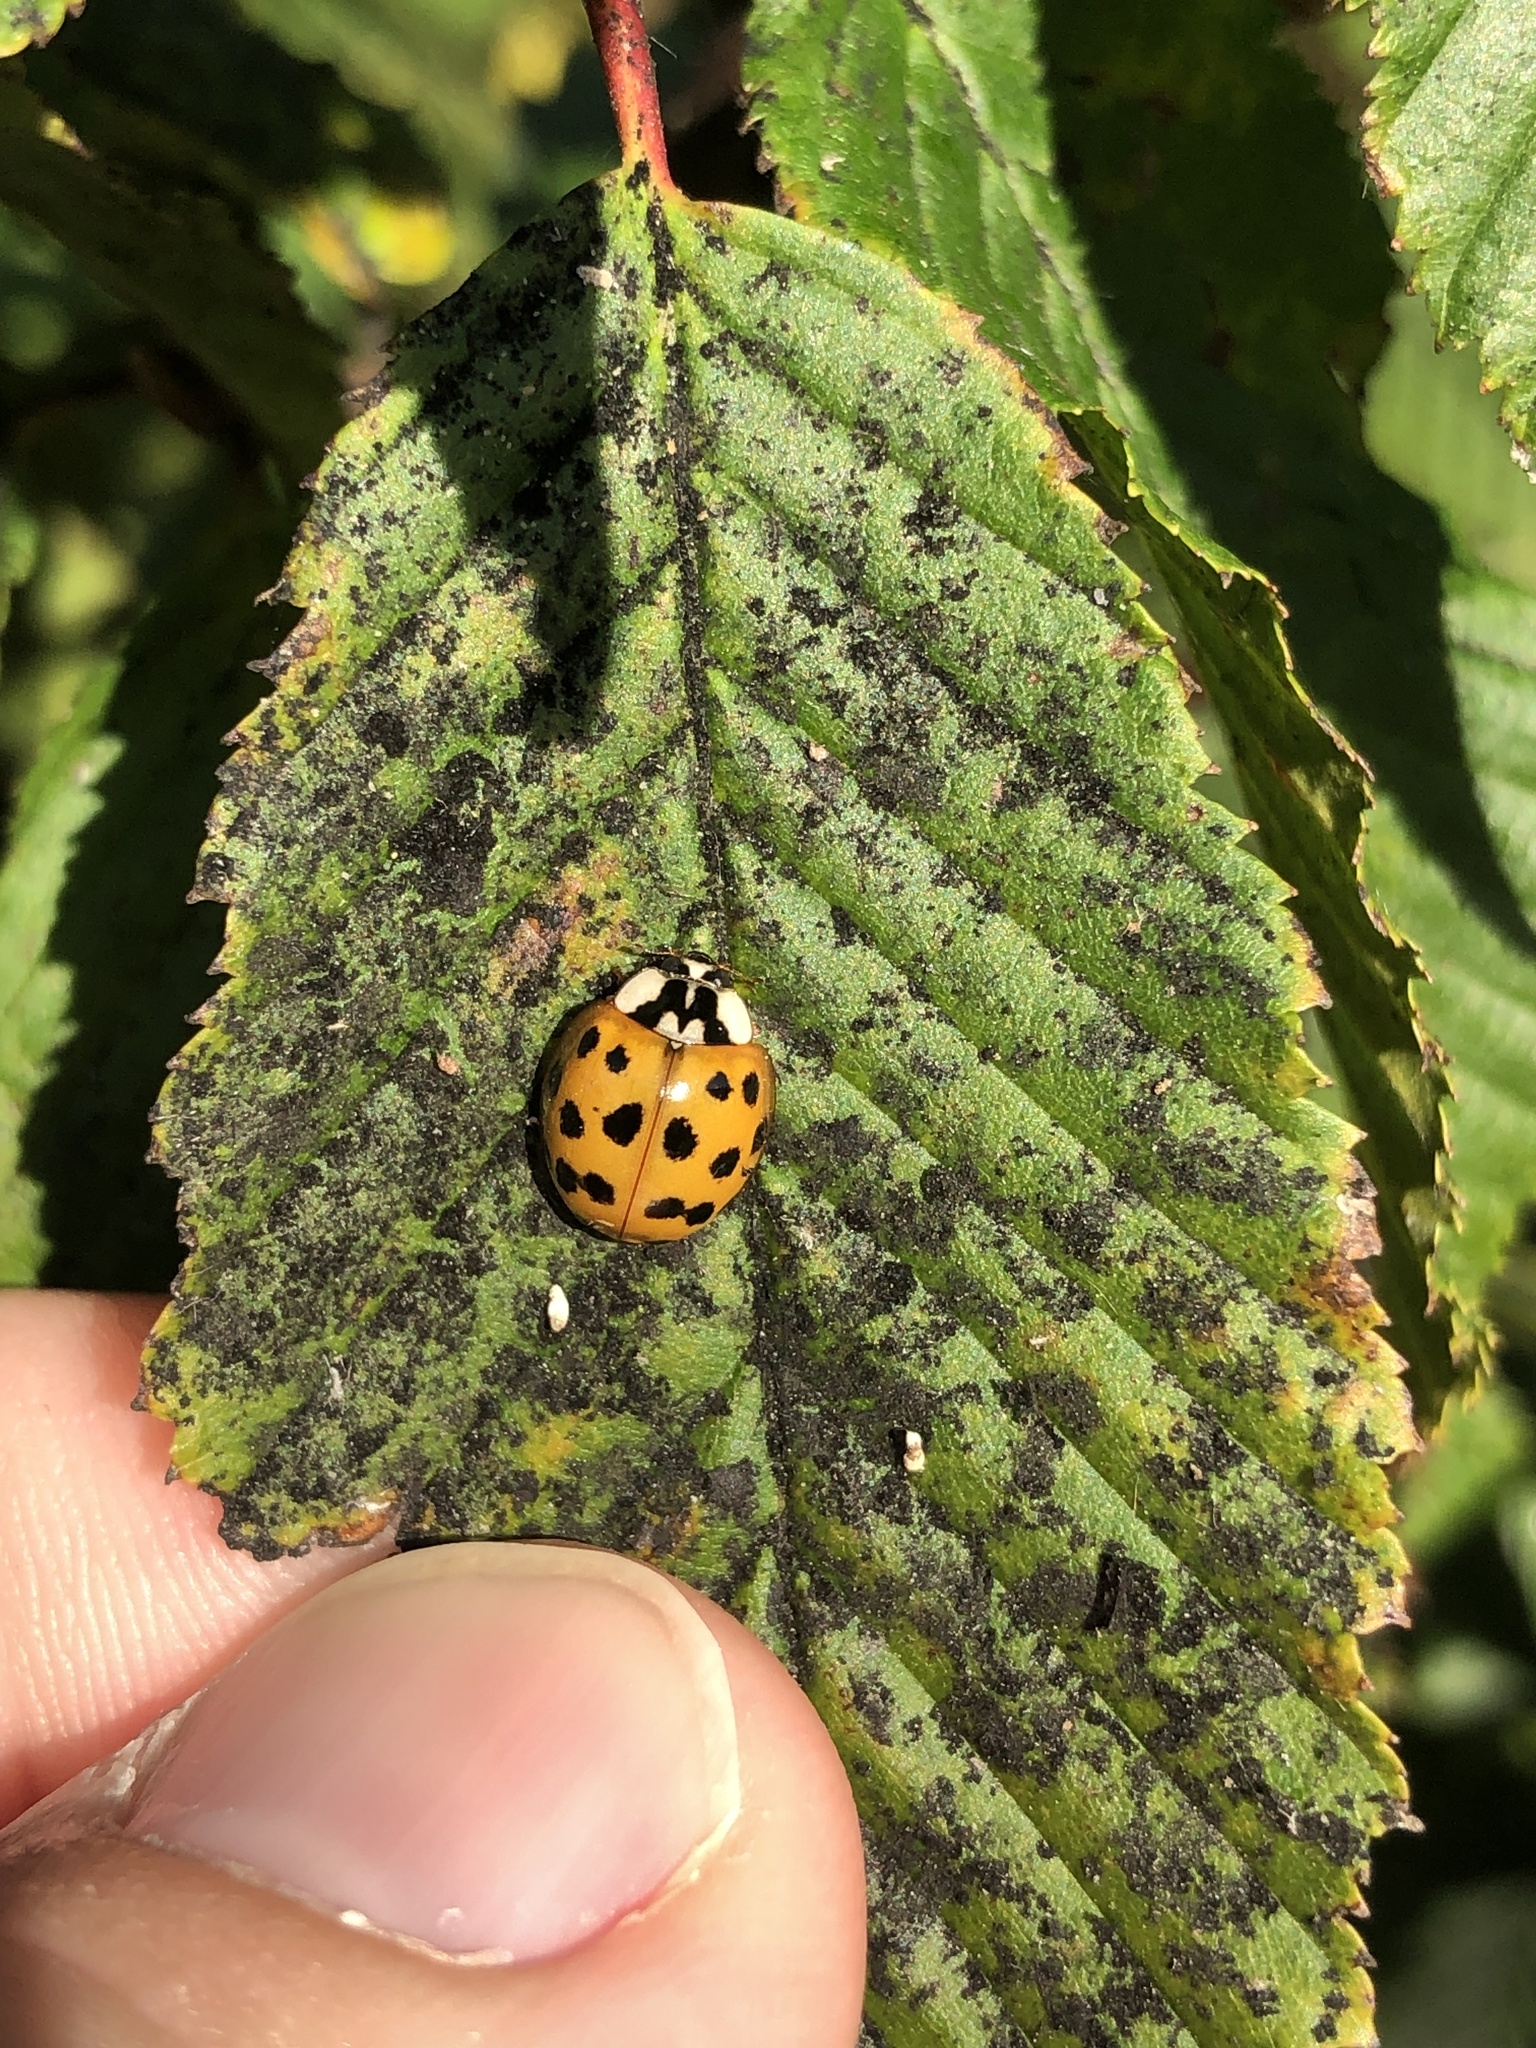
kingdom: Animalia
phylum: Arthropoda
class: Insecta
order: Coleoptera
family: Coccinellidae
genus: Harmonia
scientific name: Harmonia axyridis
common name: Harlequin ladybird
